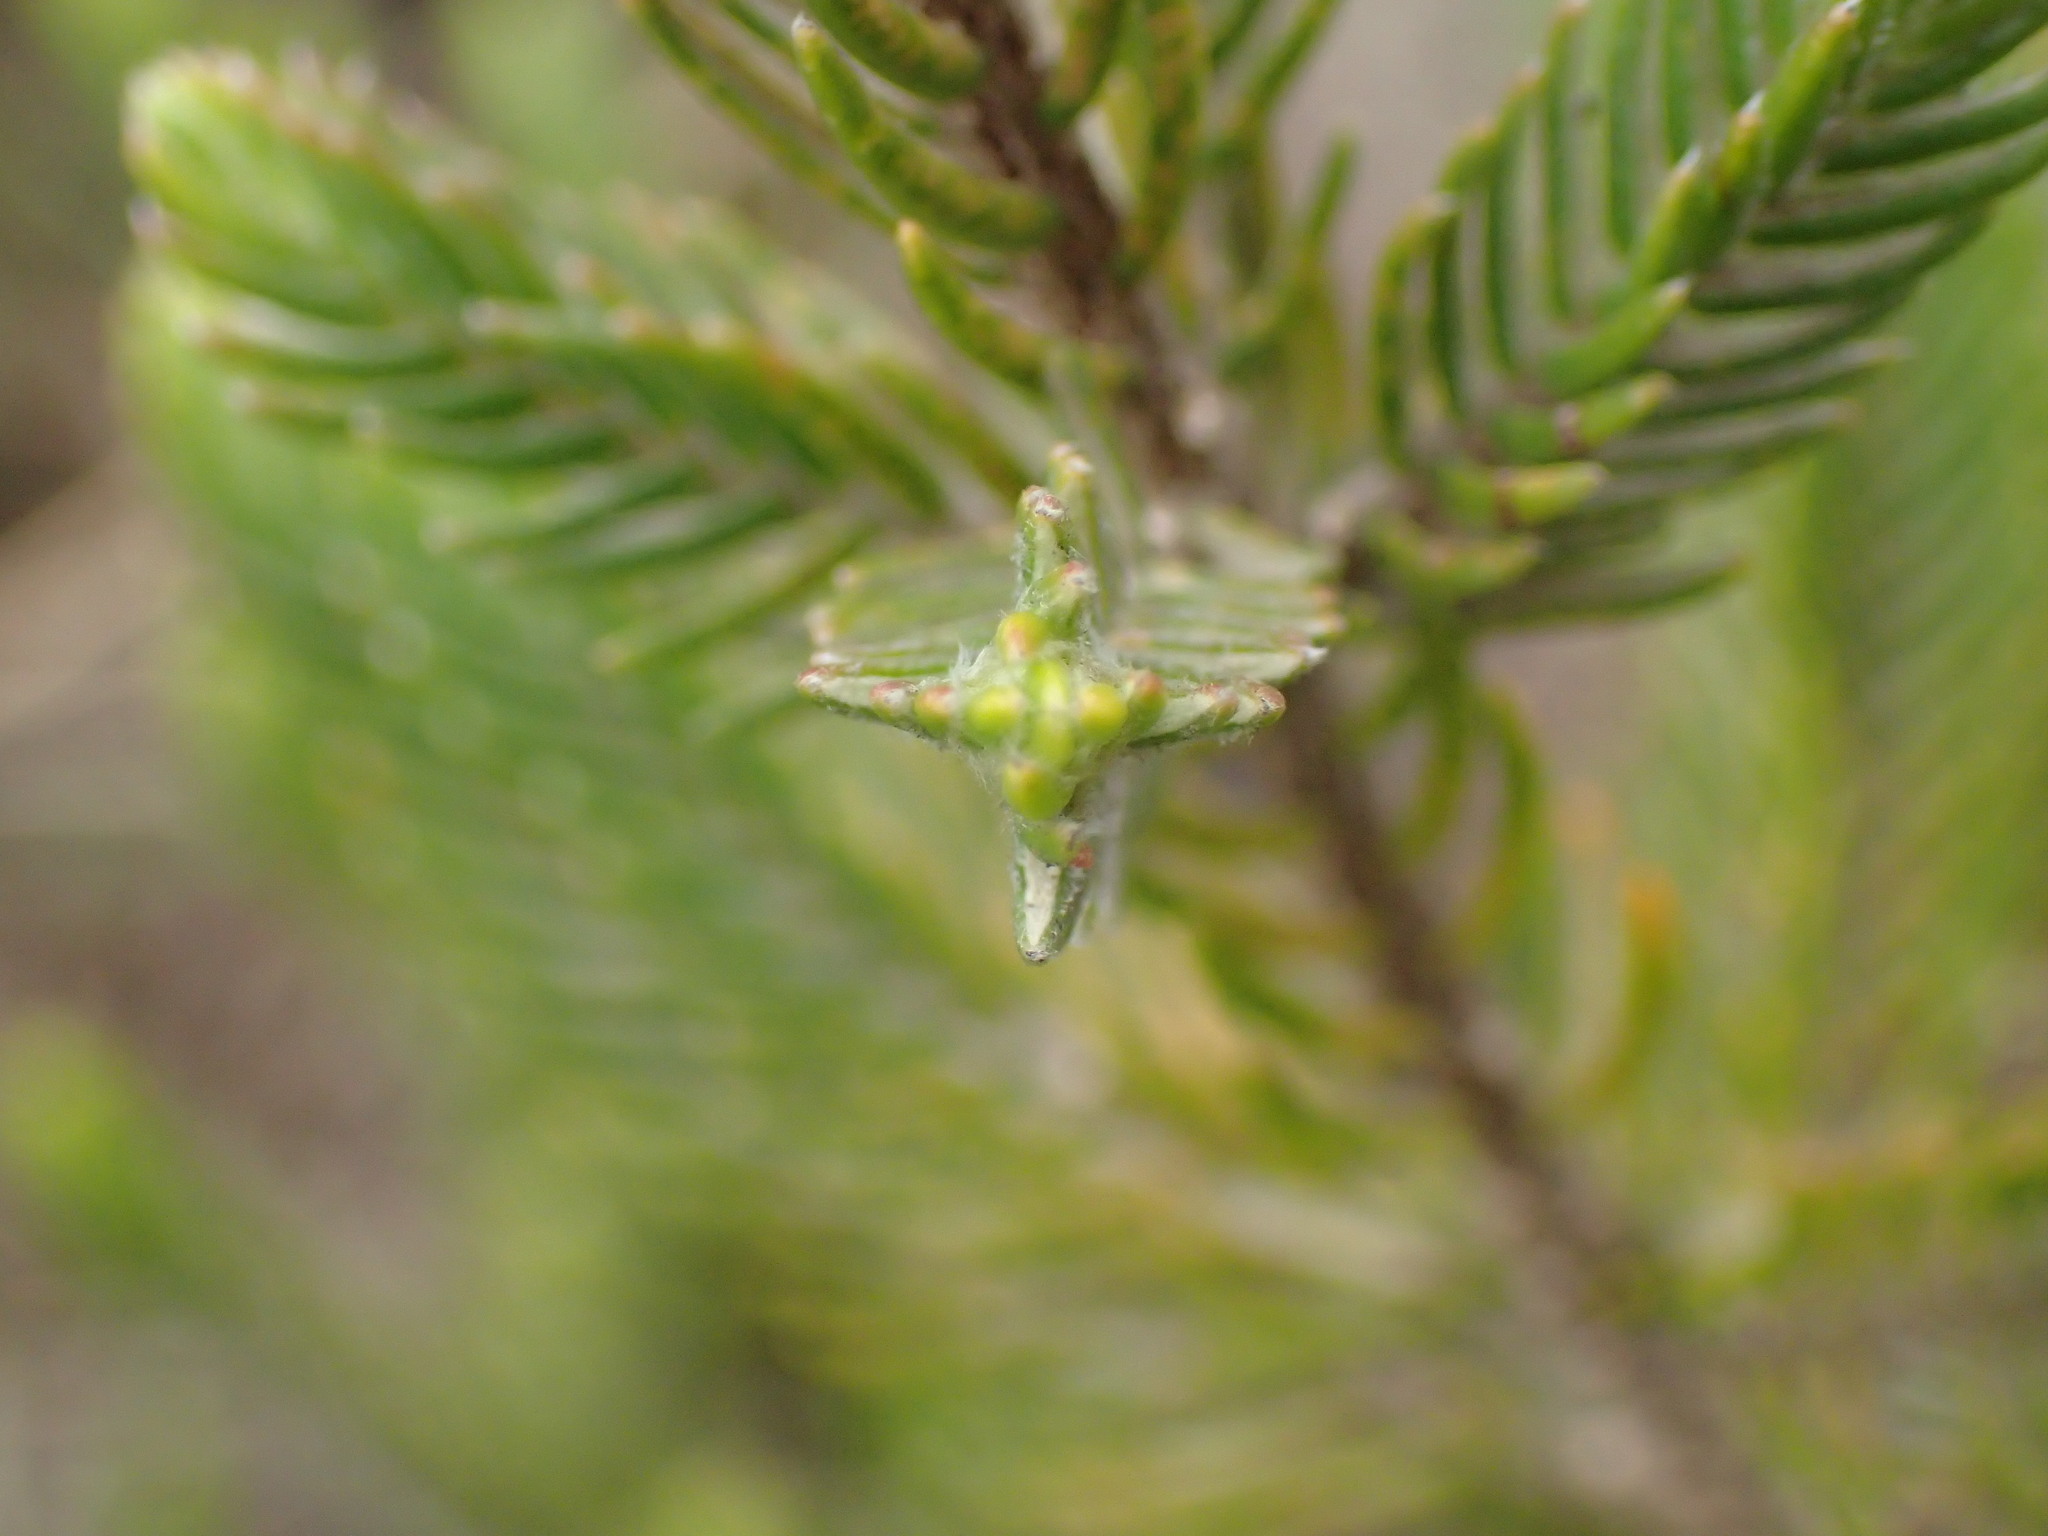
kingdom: Plantae
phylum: Tracheophyta
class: Magnoliopsida
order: Malvales
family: Thymelaeaceae
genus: Passerina
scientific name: Passerina montivaga
